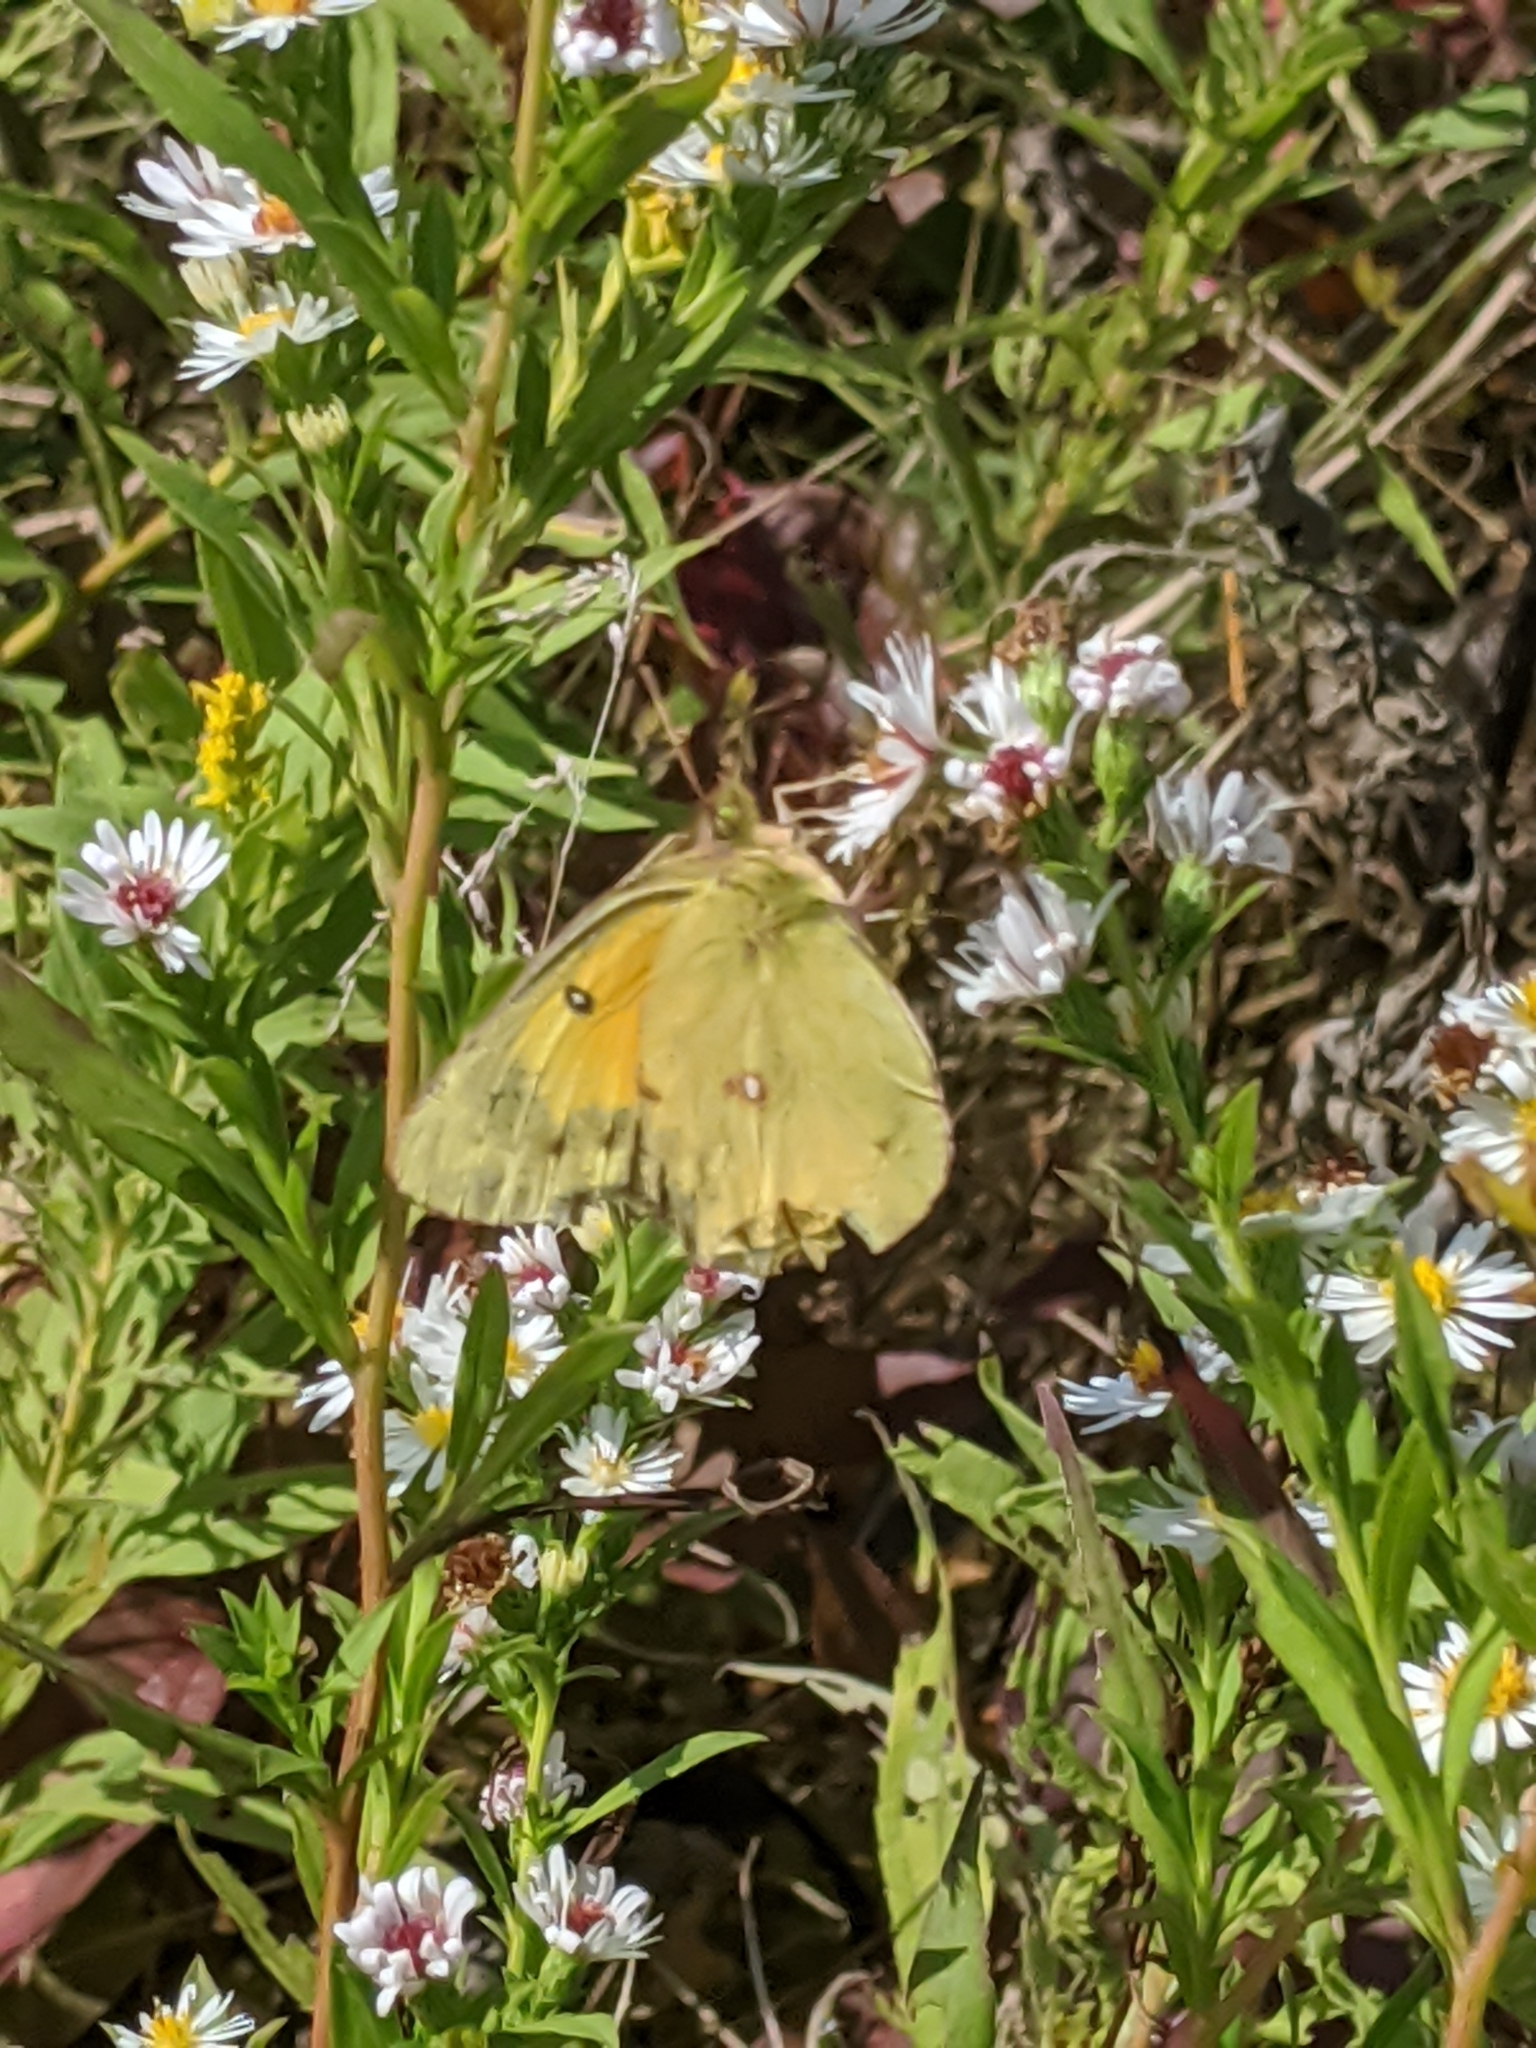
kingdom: Animalia
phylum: Arthropoda
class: Insecta
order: Lepidoptera
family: Pieridae
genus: Colias
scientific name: Colias eurytheme
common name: Alfalfa butterfly
